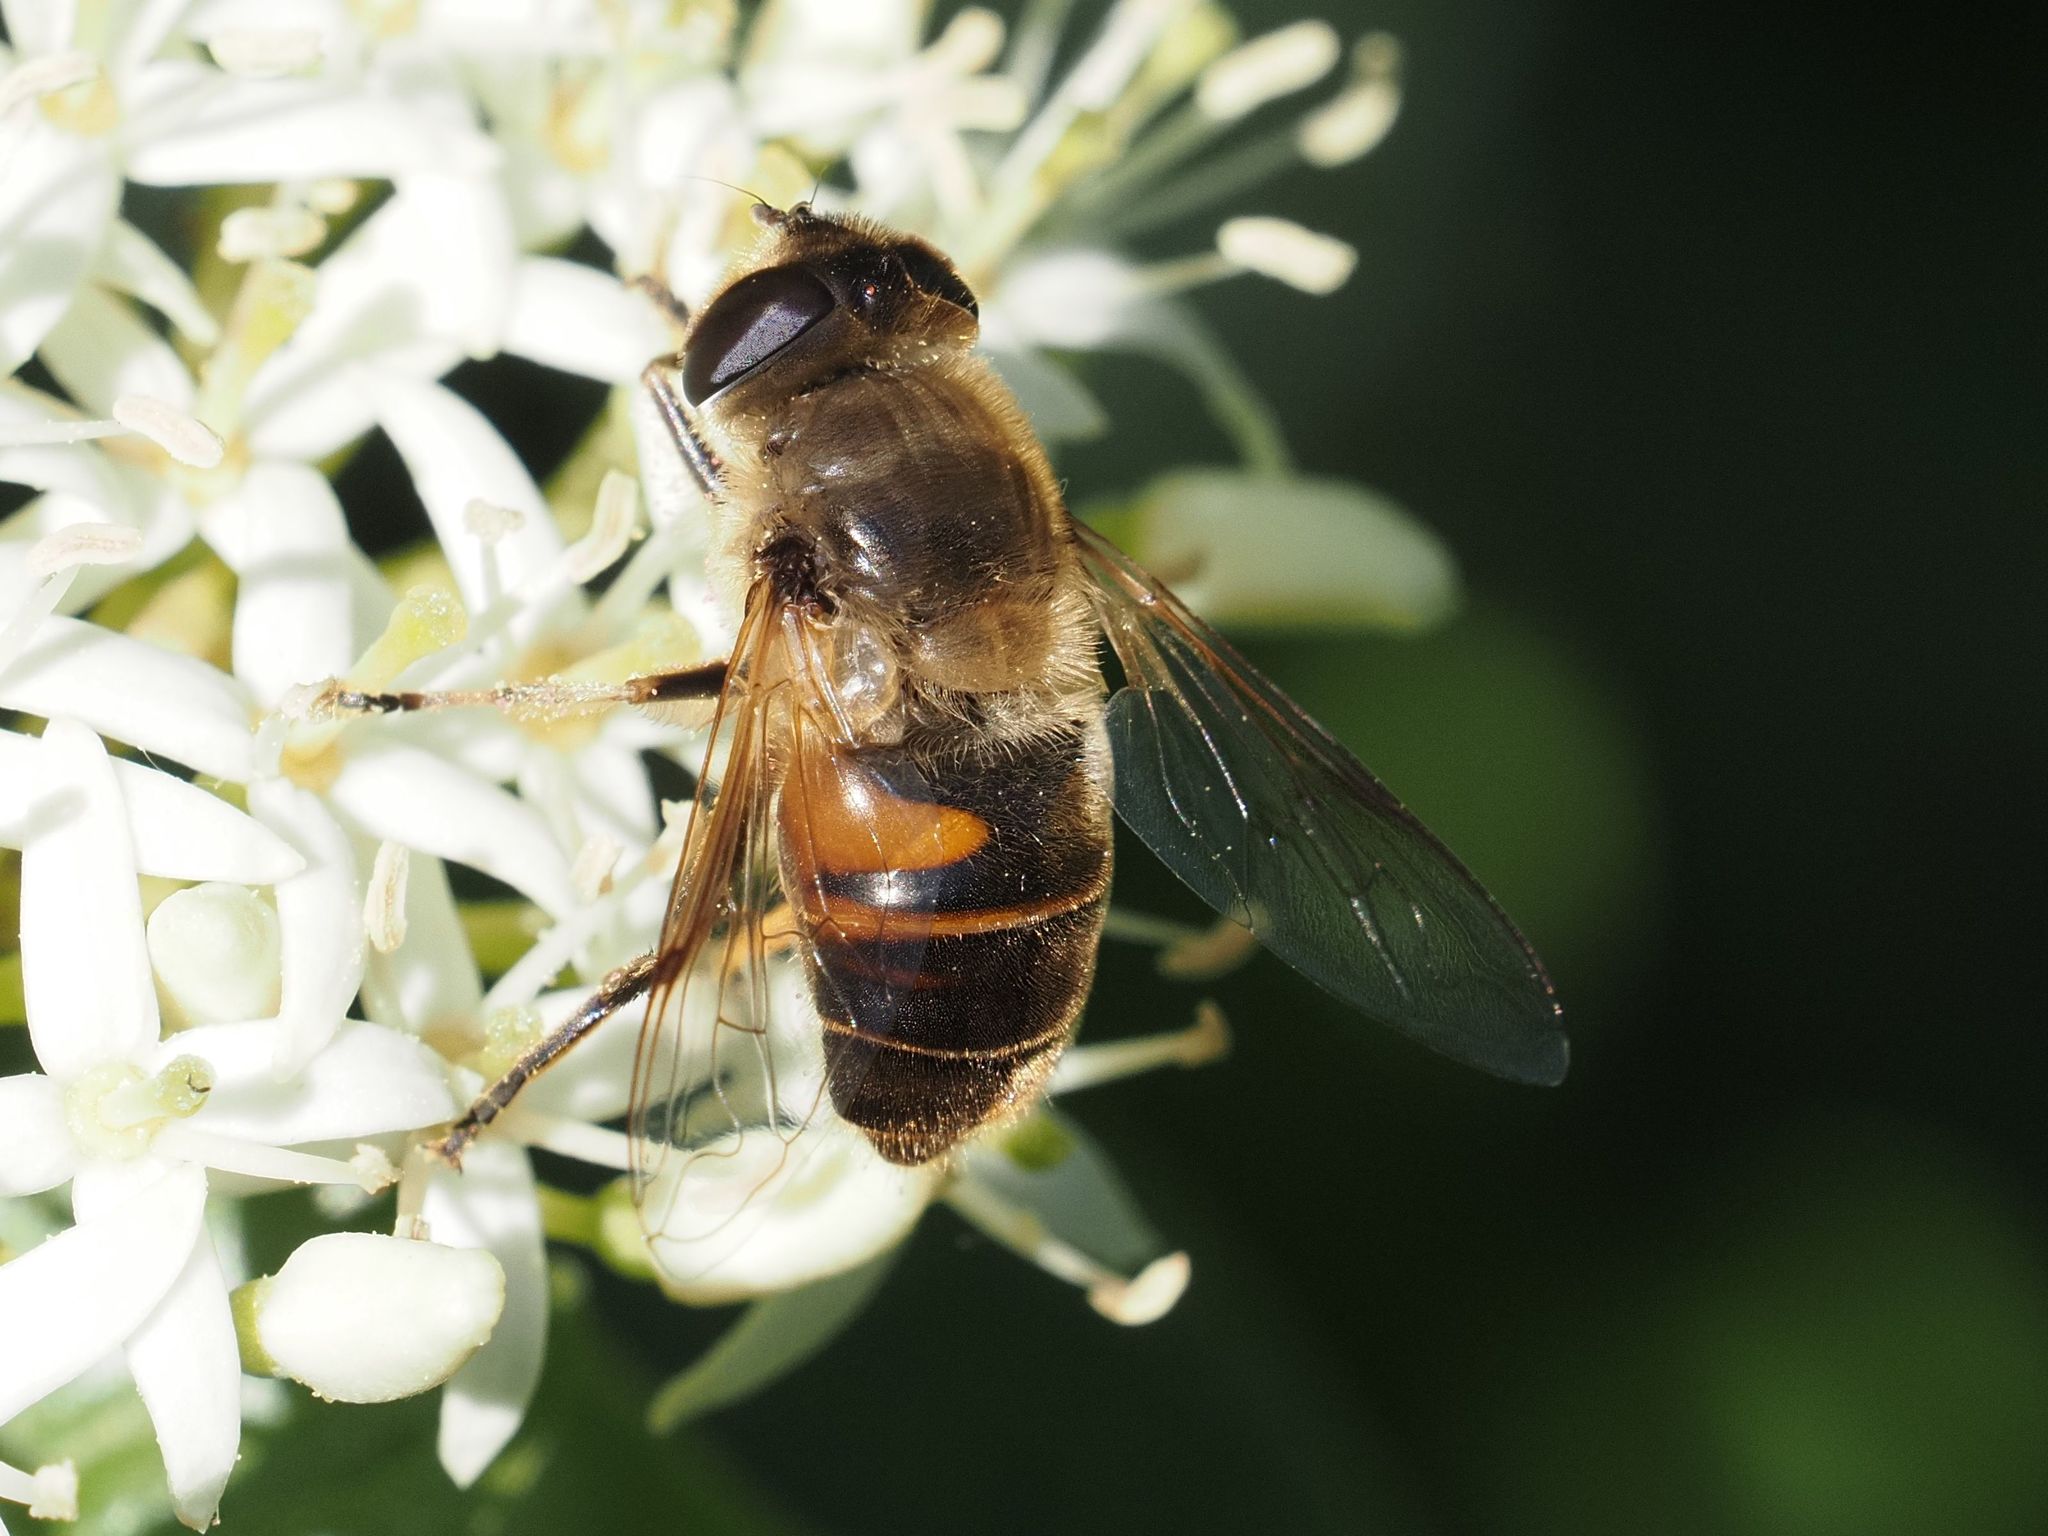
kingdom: Animalia
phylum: Arthropoda
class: Insecta
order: Diptera
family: Syrphidae
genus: Eristalis
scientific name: Eristalis tenax
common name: Drone fly
